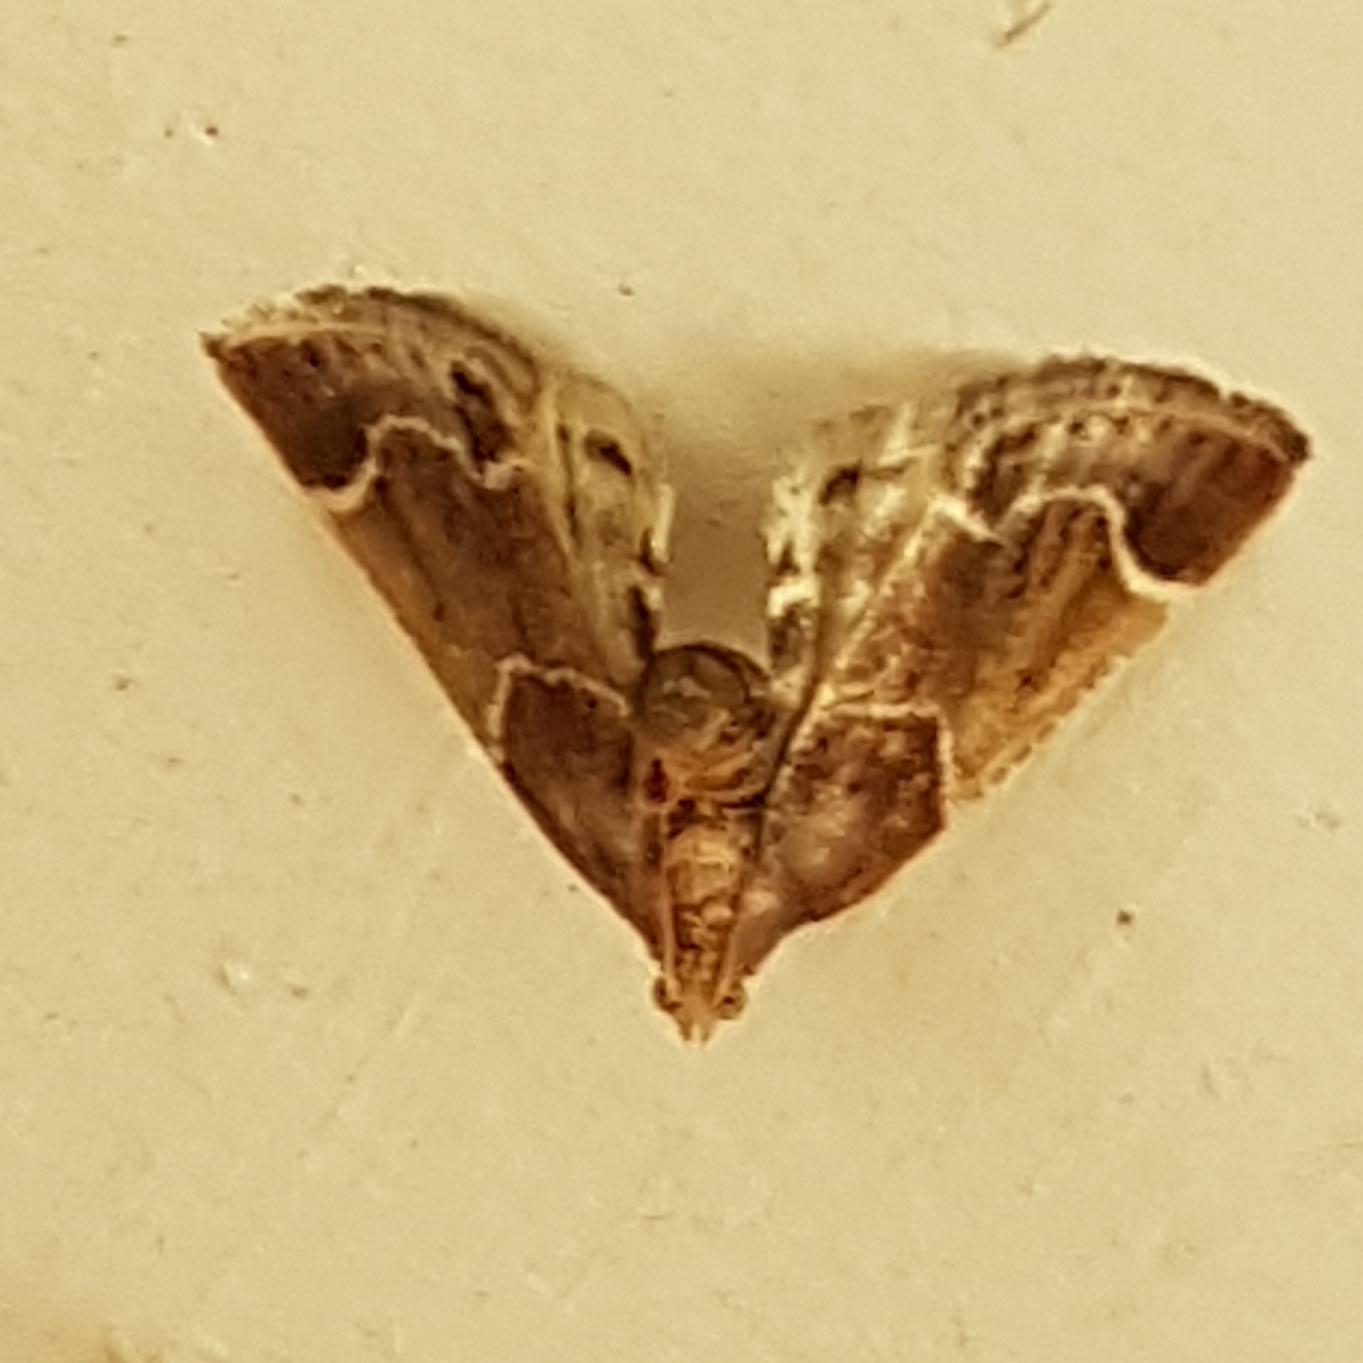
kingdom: Animalia
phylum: Arthropoda
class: Insecta
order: Lepidoptera
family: Pyralidae
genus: Pyralis
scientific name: Pyralis farinalis
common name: Meal moth
